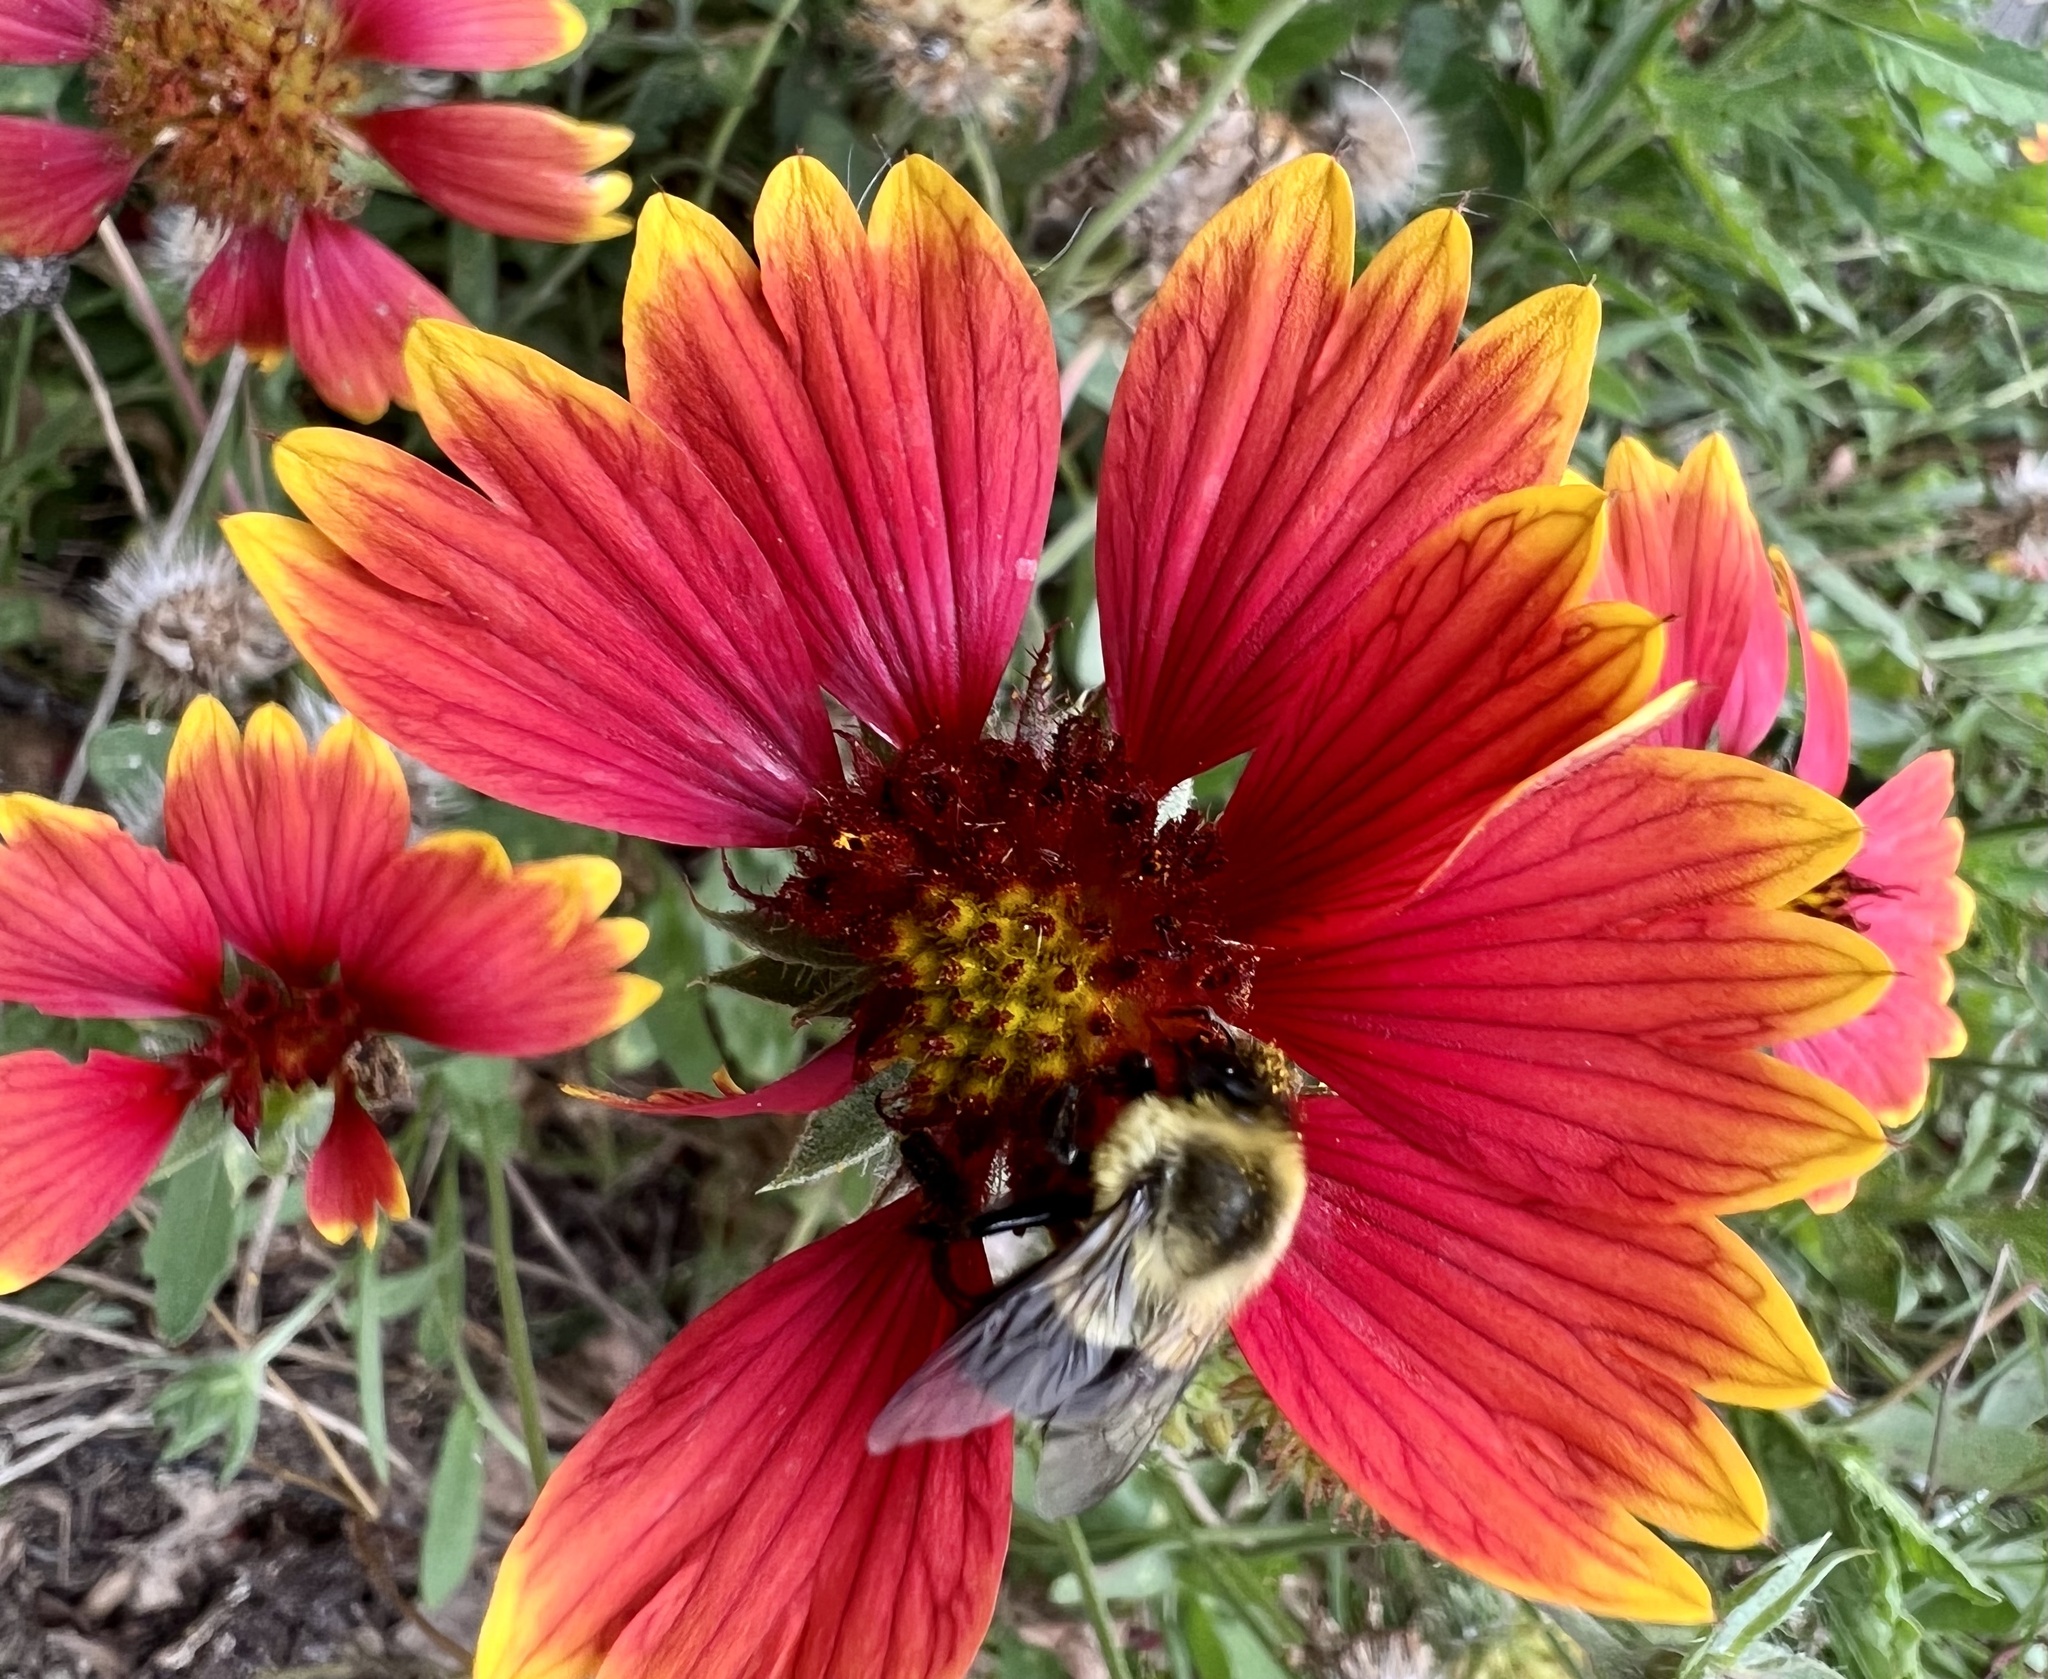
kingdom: Plantae
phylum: Tracheophyta
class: Magnoliopsida
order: Asterales
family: Asteraceae
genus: Gaillardia
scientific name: Gaillardia pulchella
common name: Firewheel
